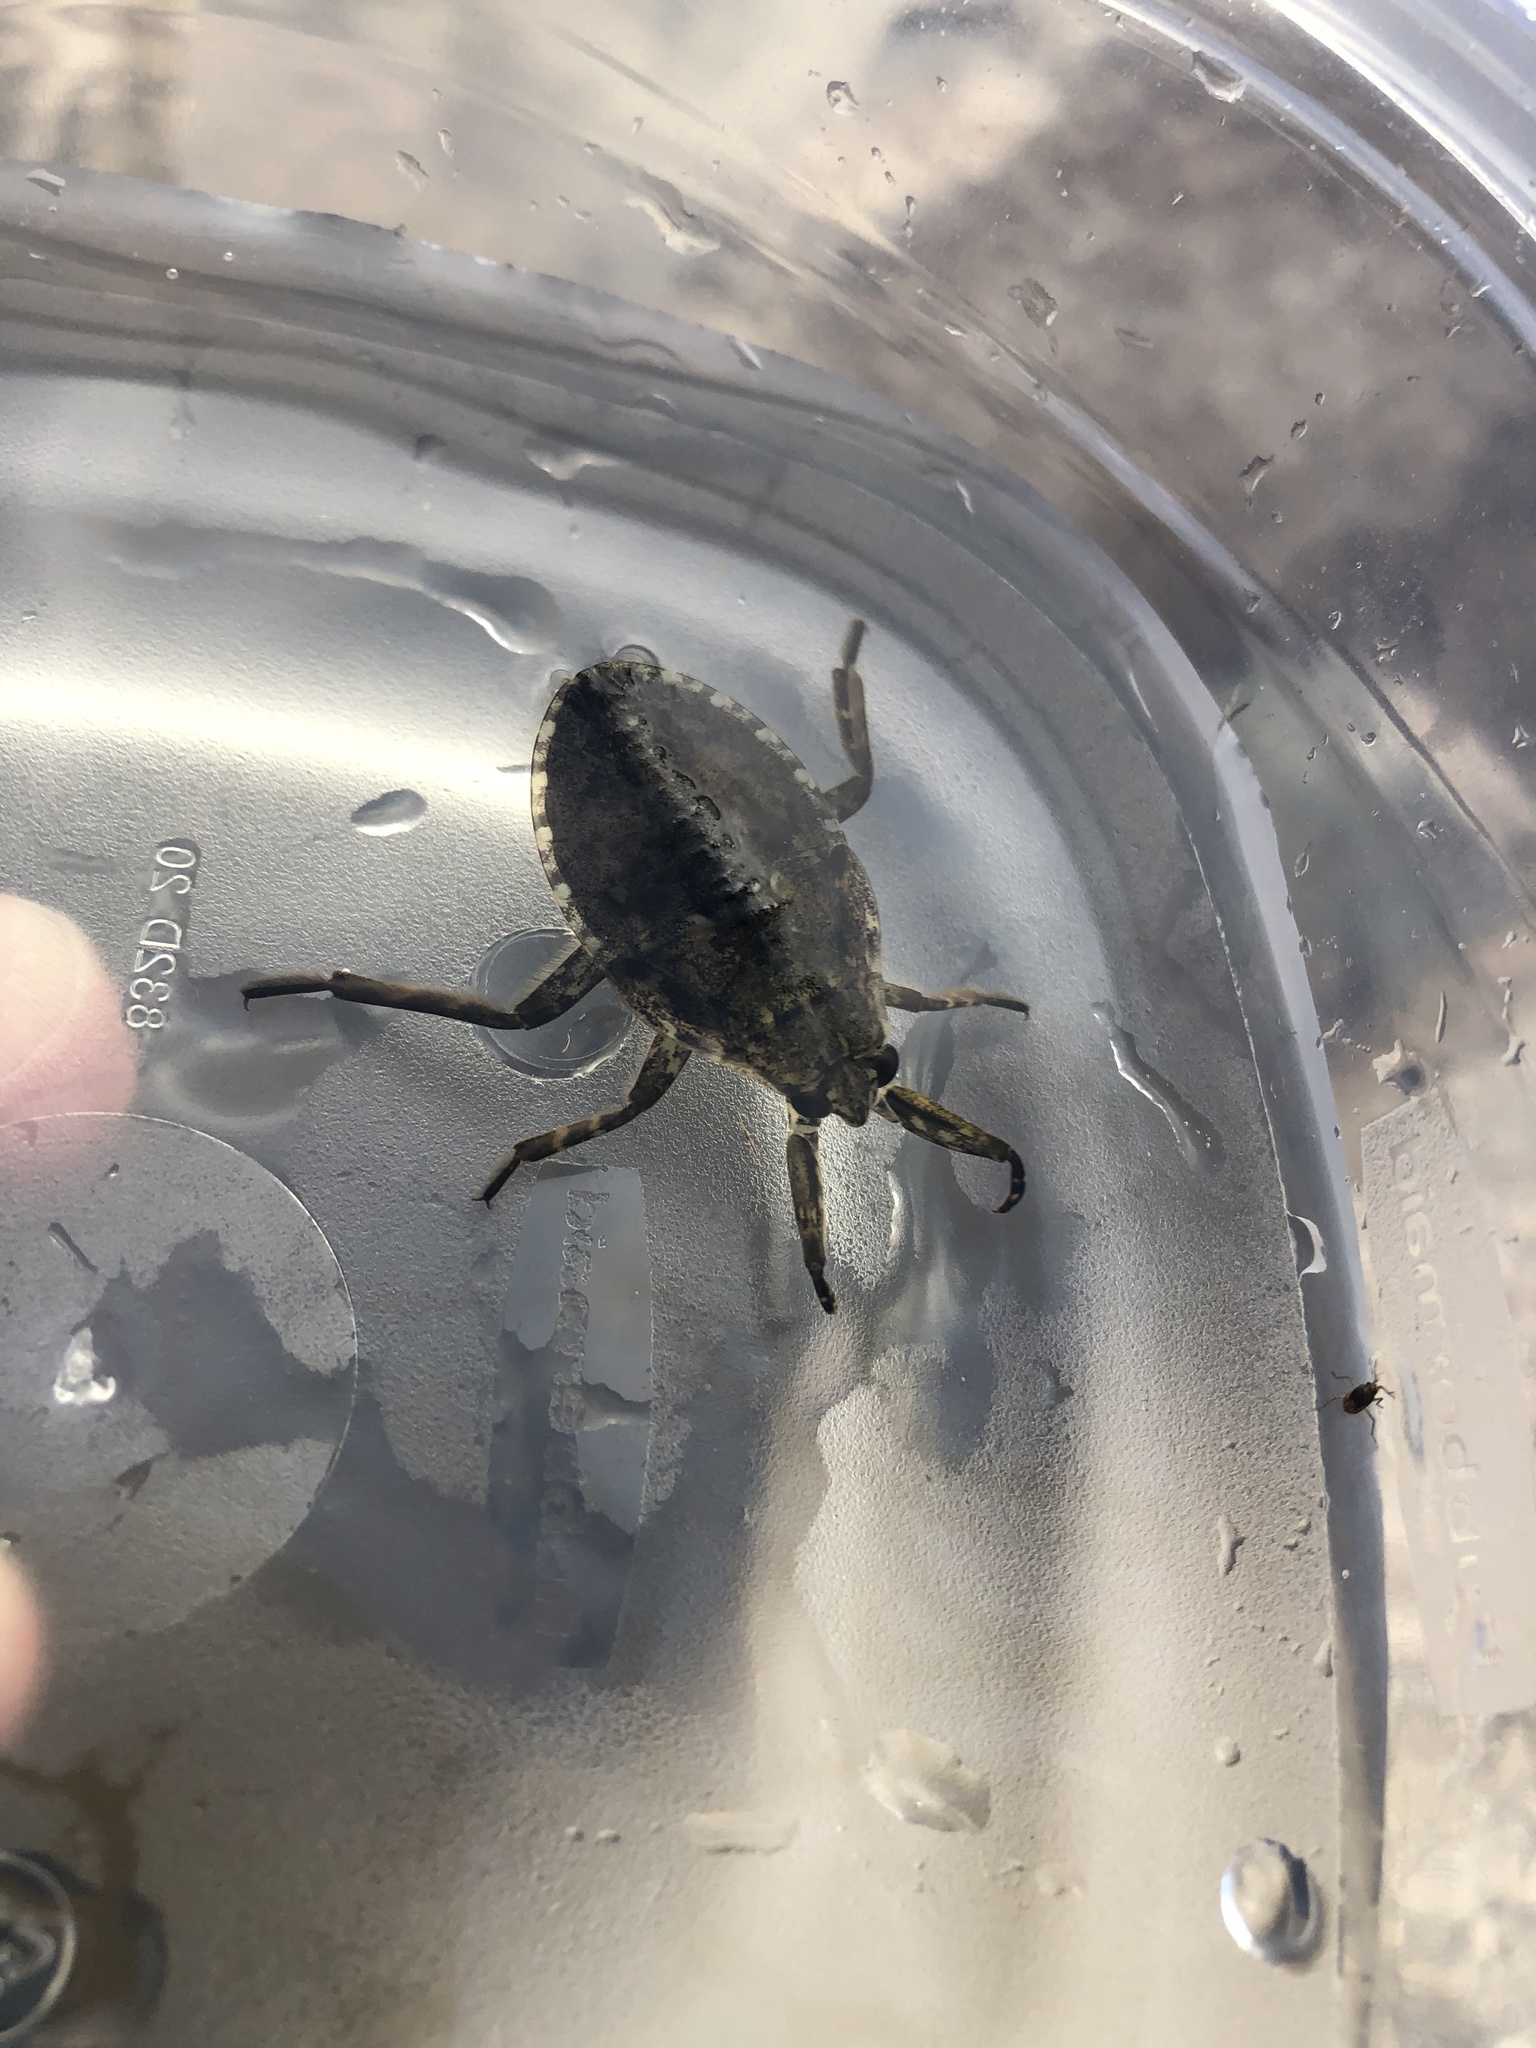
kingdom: Animalia
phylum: Arthropoda
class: Insecta
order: Hemiptera
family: Belostomatidae
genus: Abedus
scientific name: Abedus
